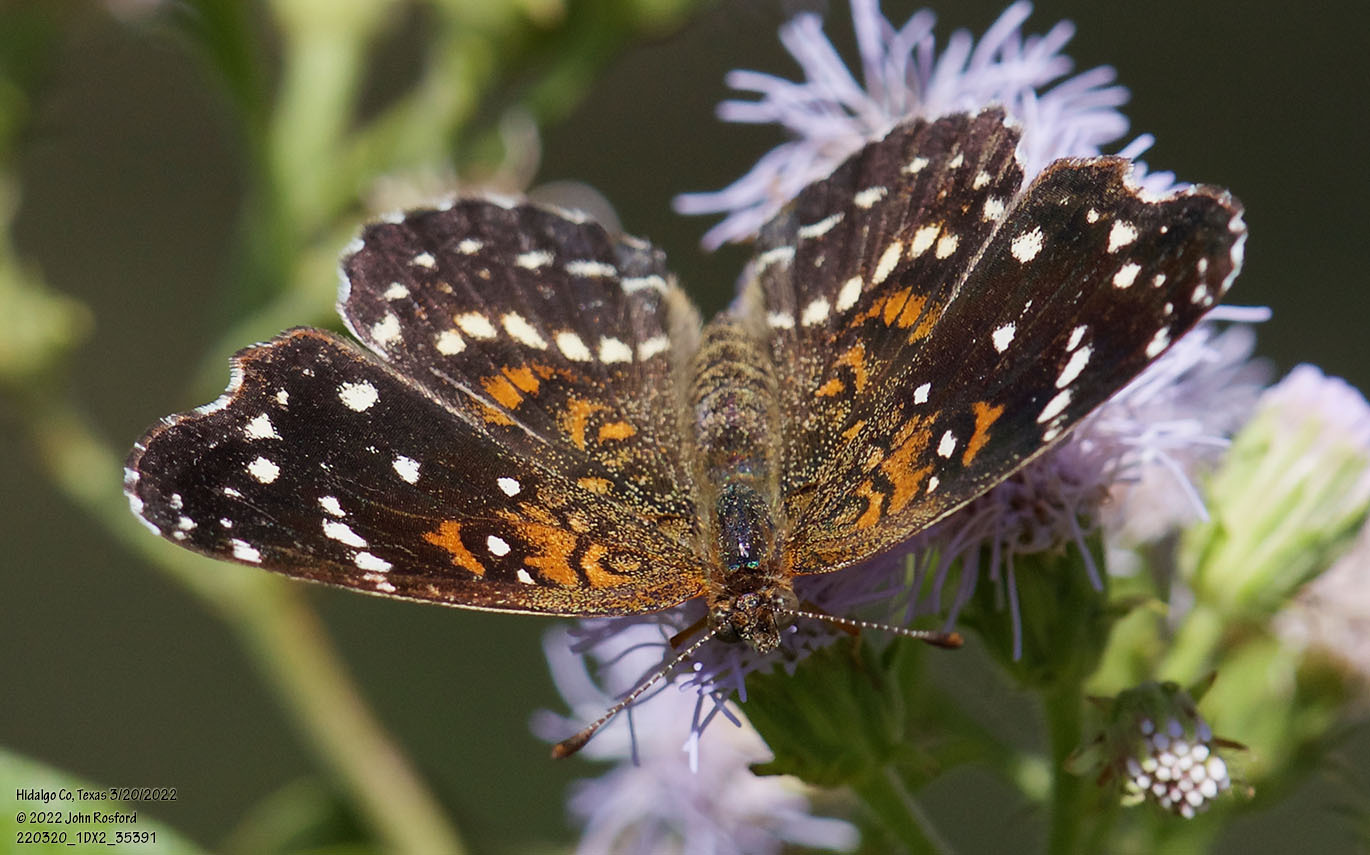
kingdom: Animalia
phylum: Arthropoda
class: Insecta
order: Lepidoptera
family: Nymphalidae
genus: Anthanassa
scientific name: Anthanassa texana
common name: Texan crescent
